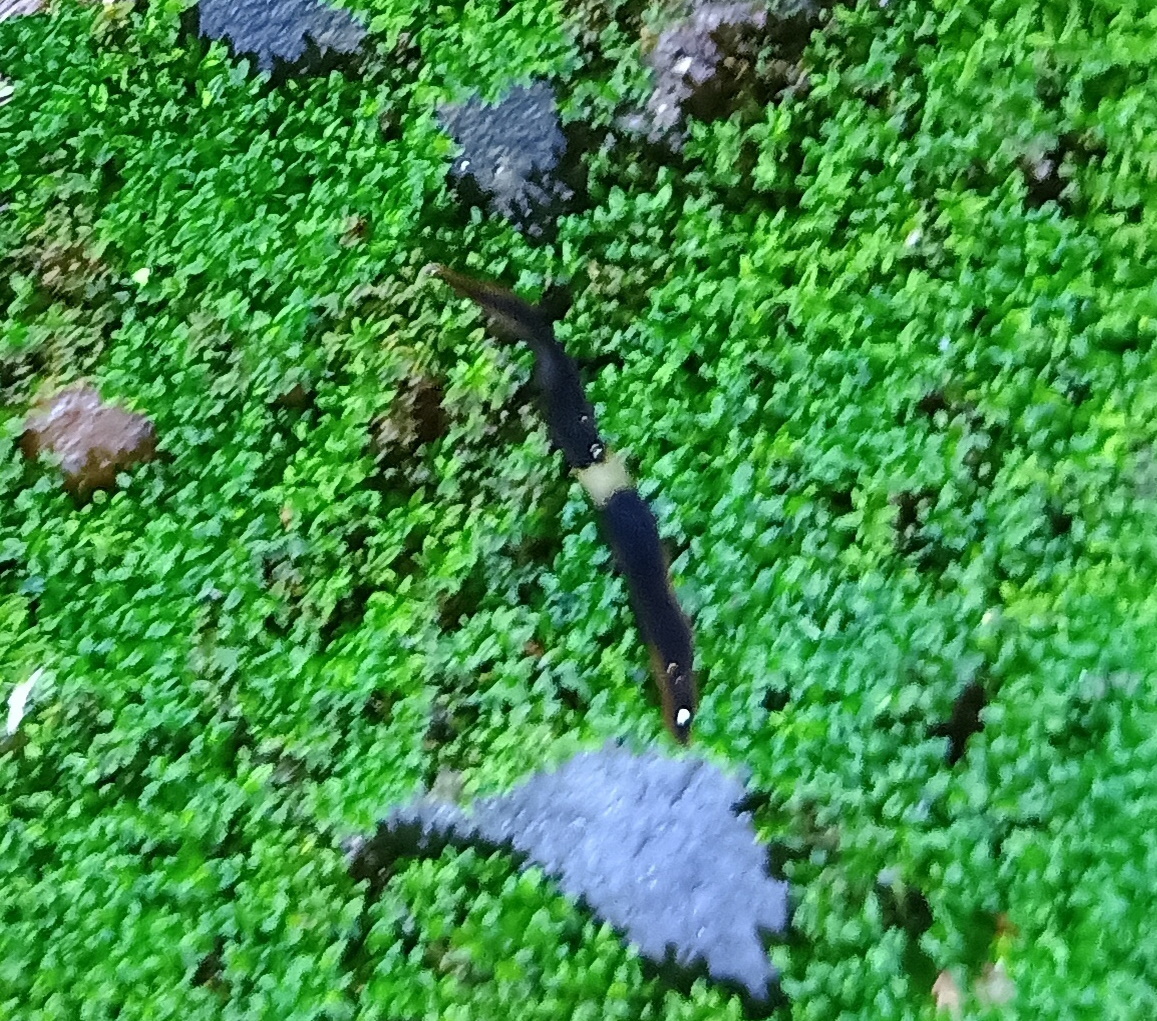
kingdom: Animalia
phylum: Platyhelminthes
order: Tricladida
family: Geoplanidae
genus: Paraba
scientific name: Paraba pankaru
